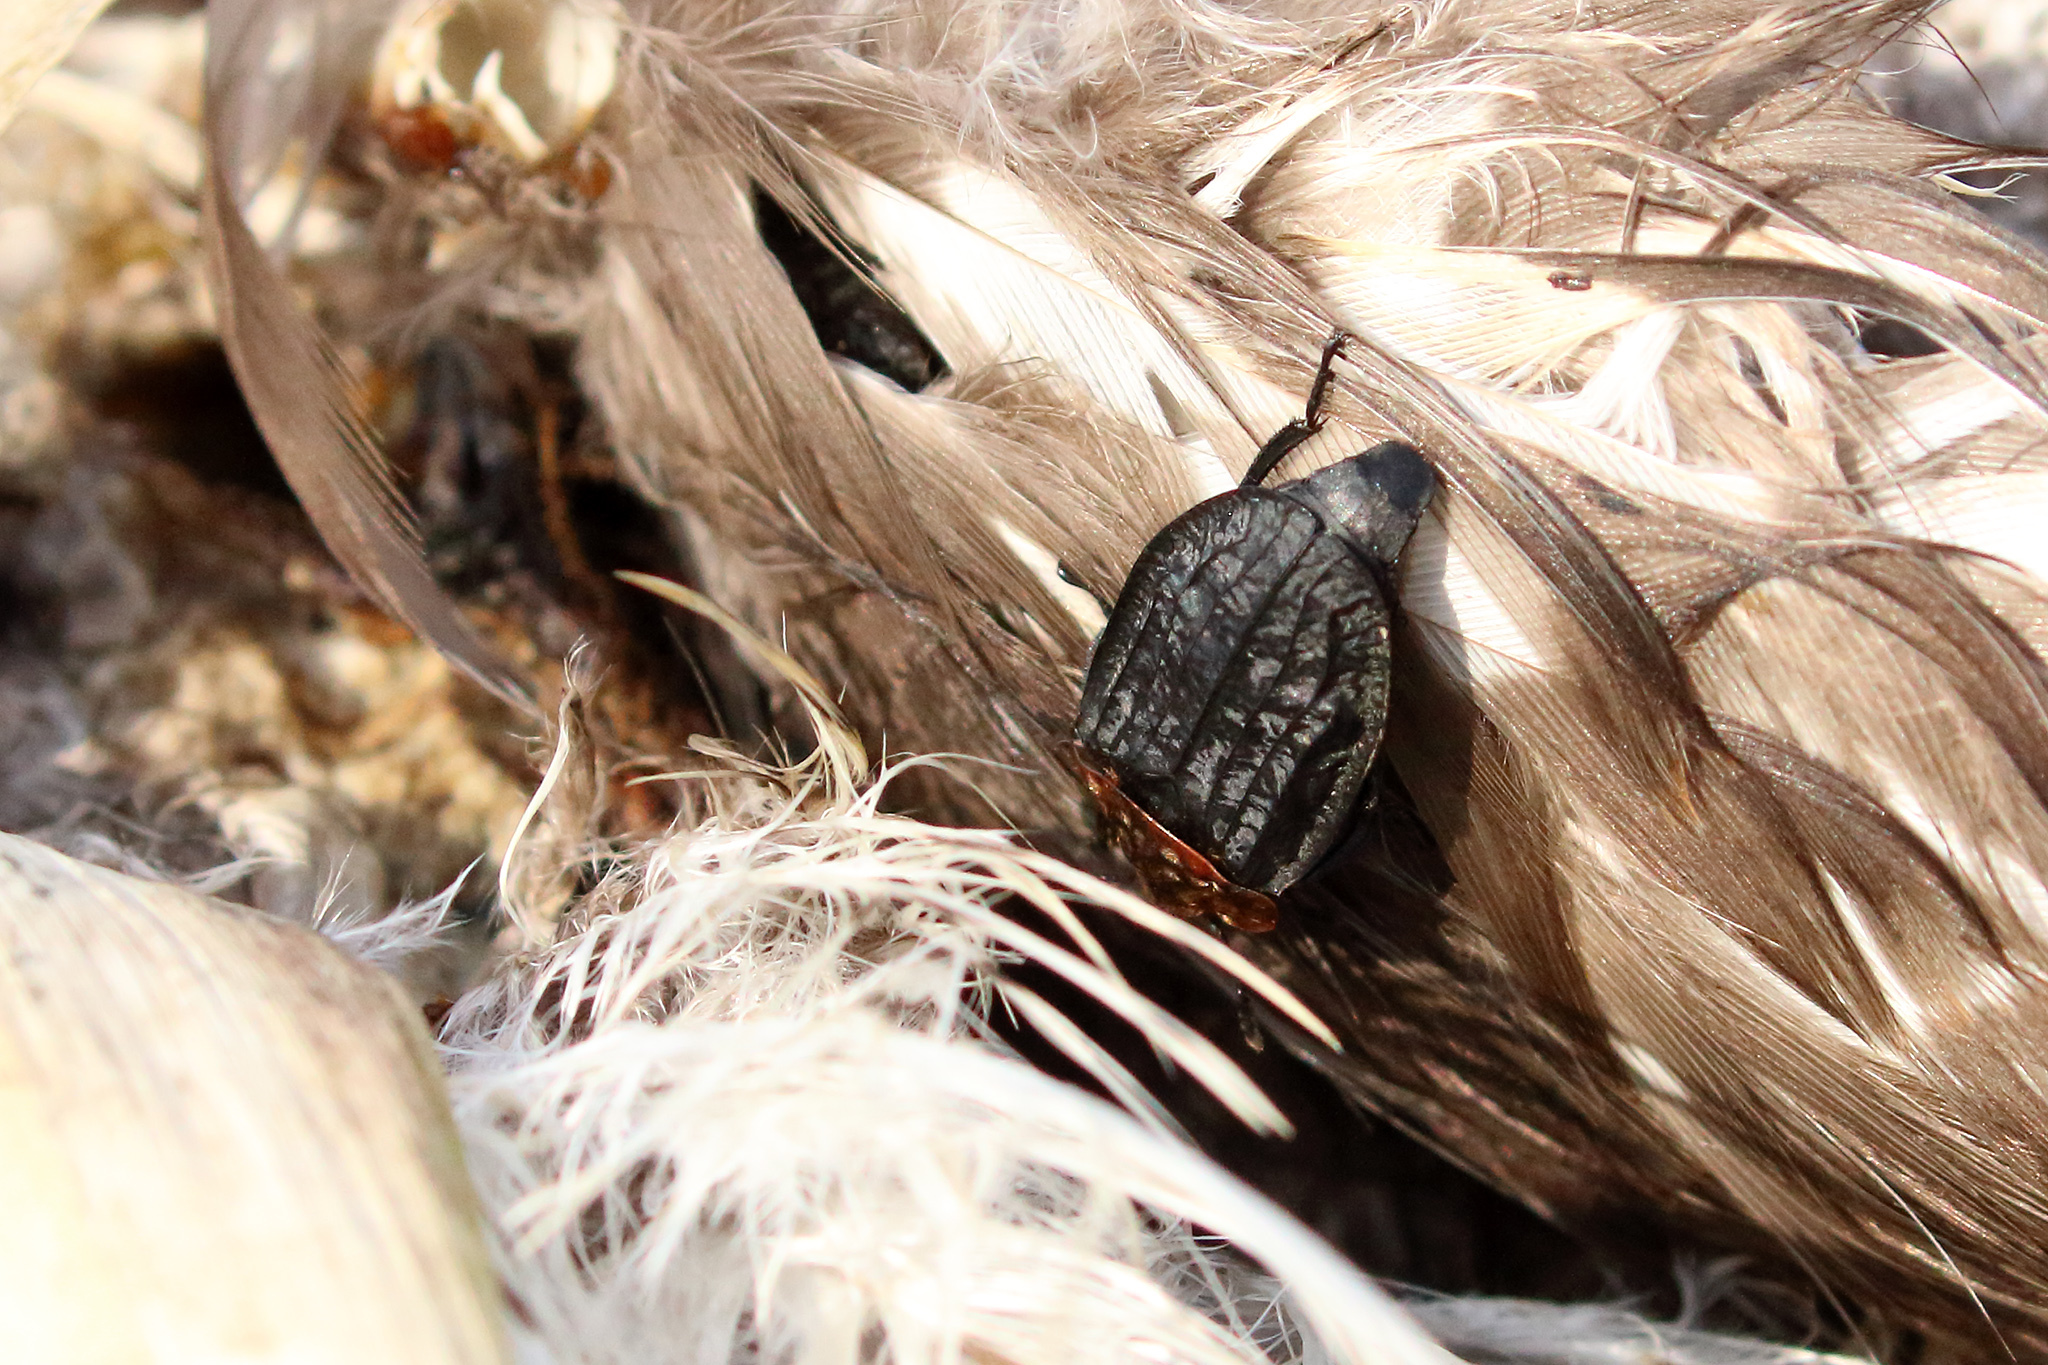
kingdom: Animalia
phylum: Arthropoda
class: Insecta
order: Coleoptera
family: Staphylinidae
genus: Oiceoptoma
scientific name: Oiceoptoma thoracicum
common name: Red-breasted carrion beetle
